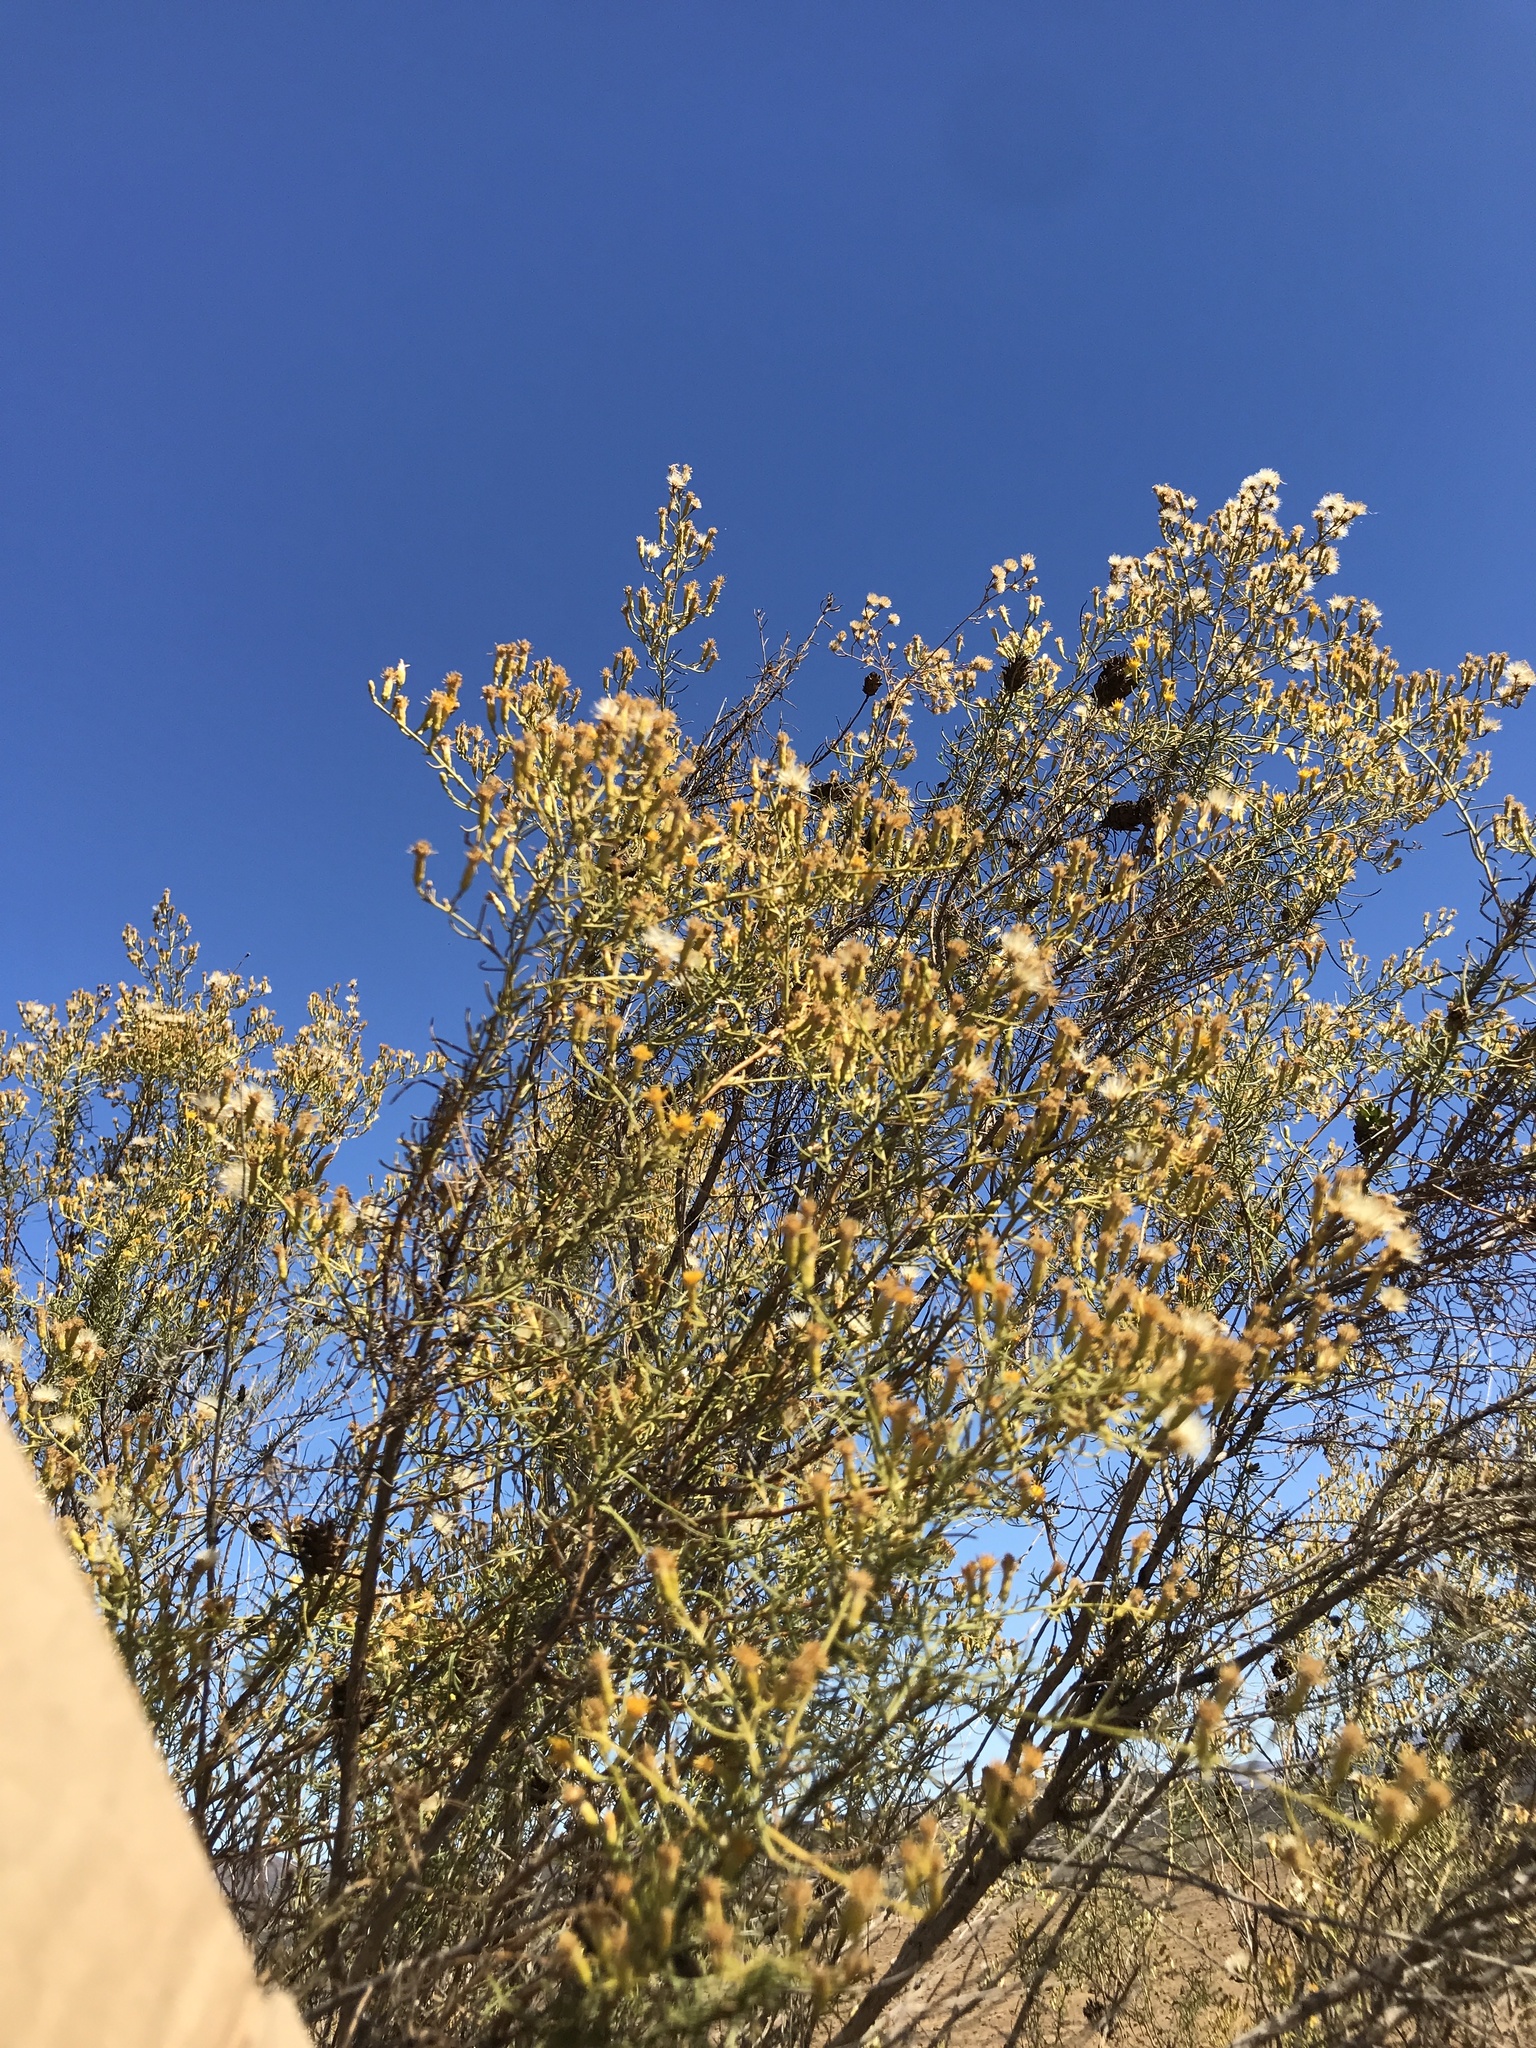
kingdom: Plantae
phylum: Tracheophyta
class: Magnoliopsida
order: Asterales
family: Asteraceae
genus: Ericameria
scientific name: Ericameria palmeri
